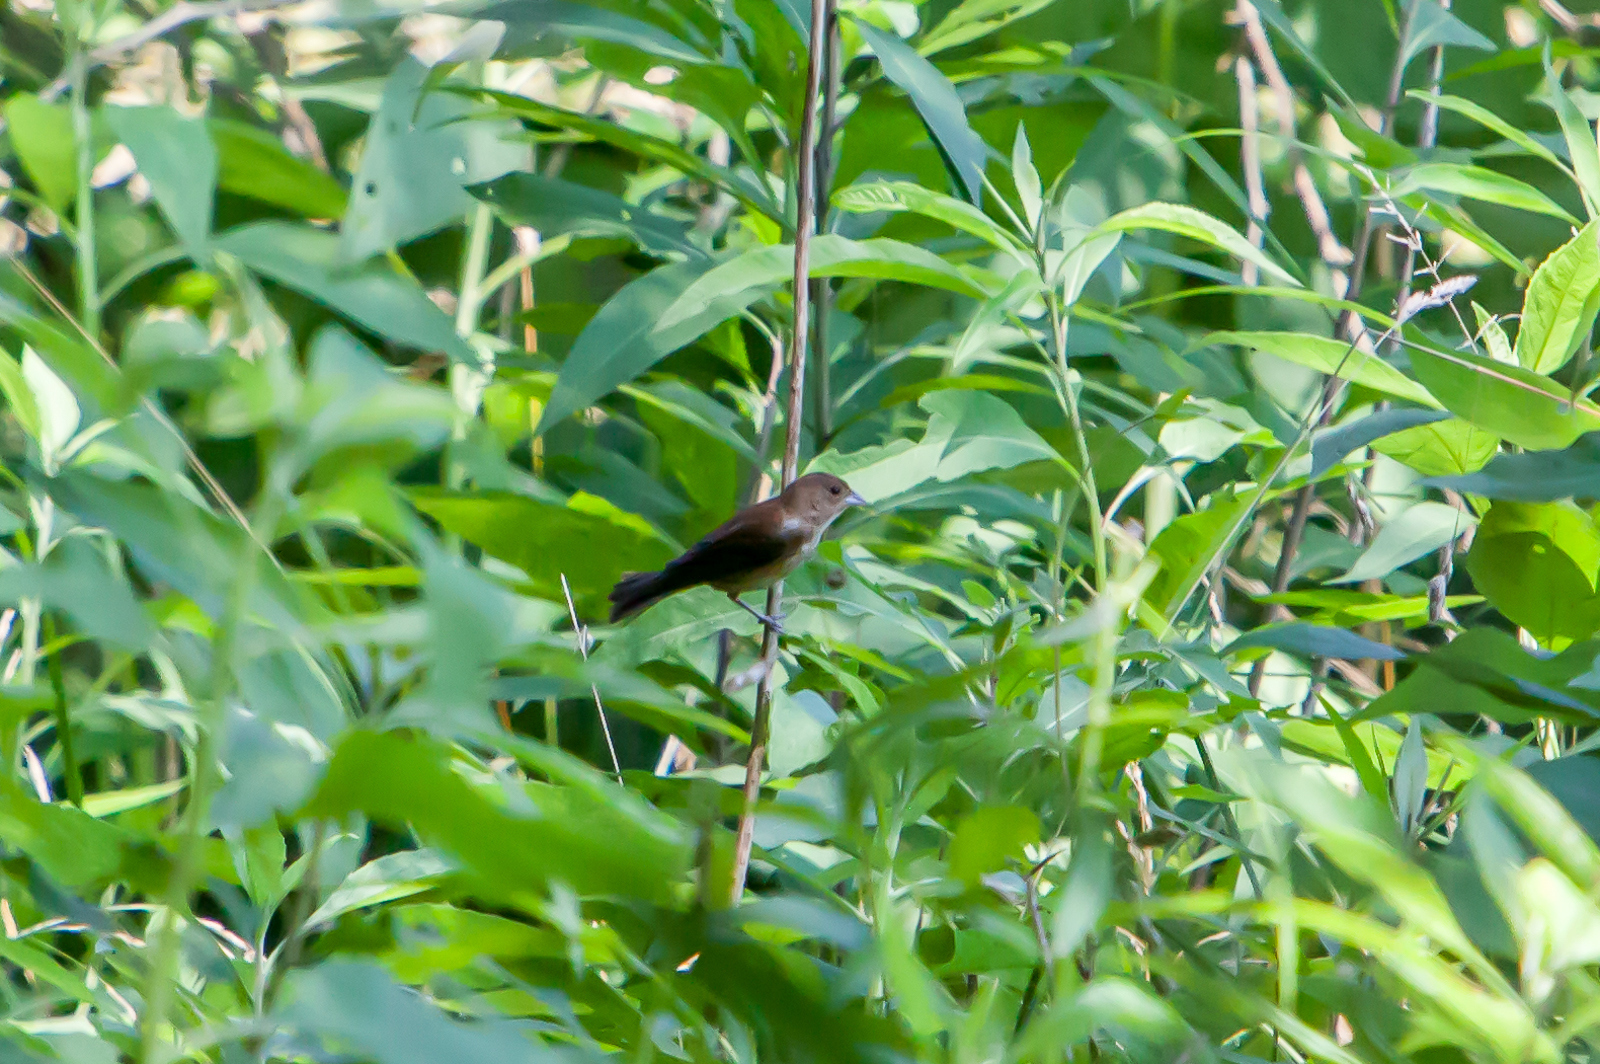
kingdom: Animalia
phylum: Chordata
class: Aves
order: Passeriformes
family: Cardinalidae
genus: Passerina
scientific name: Passerina cyanea
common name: Indigo bunting
